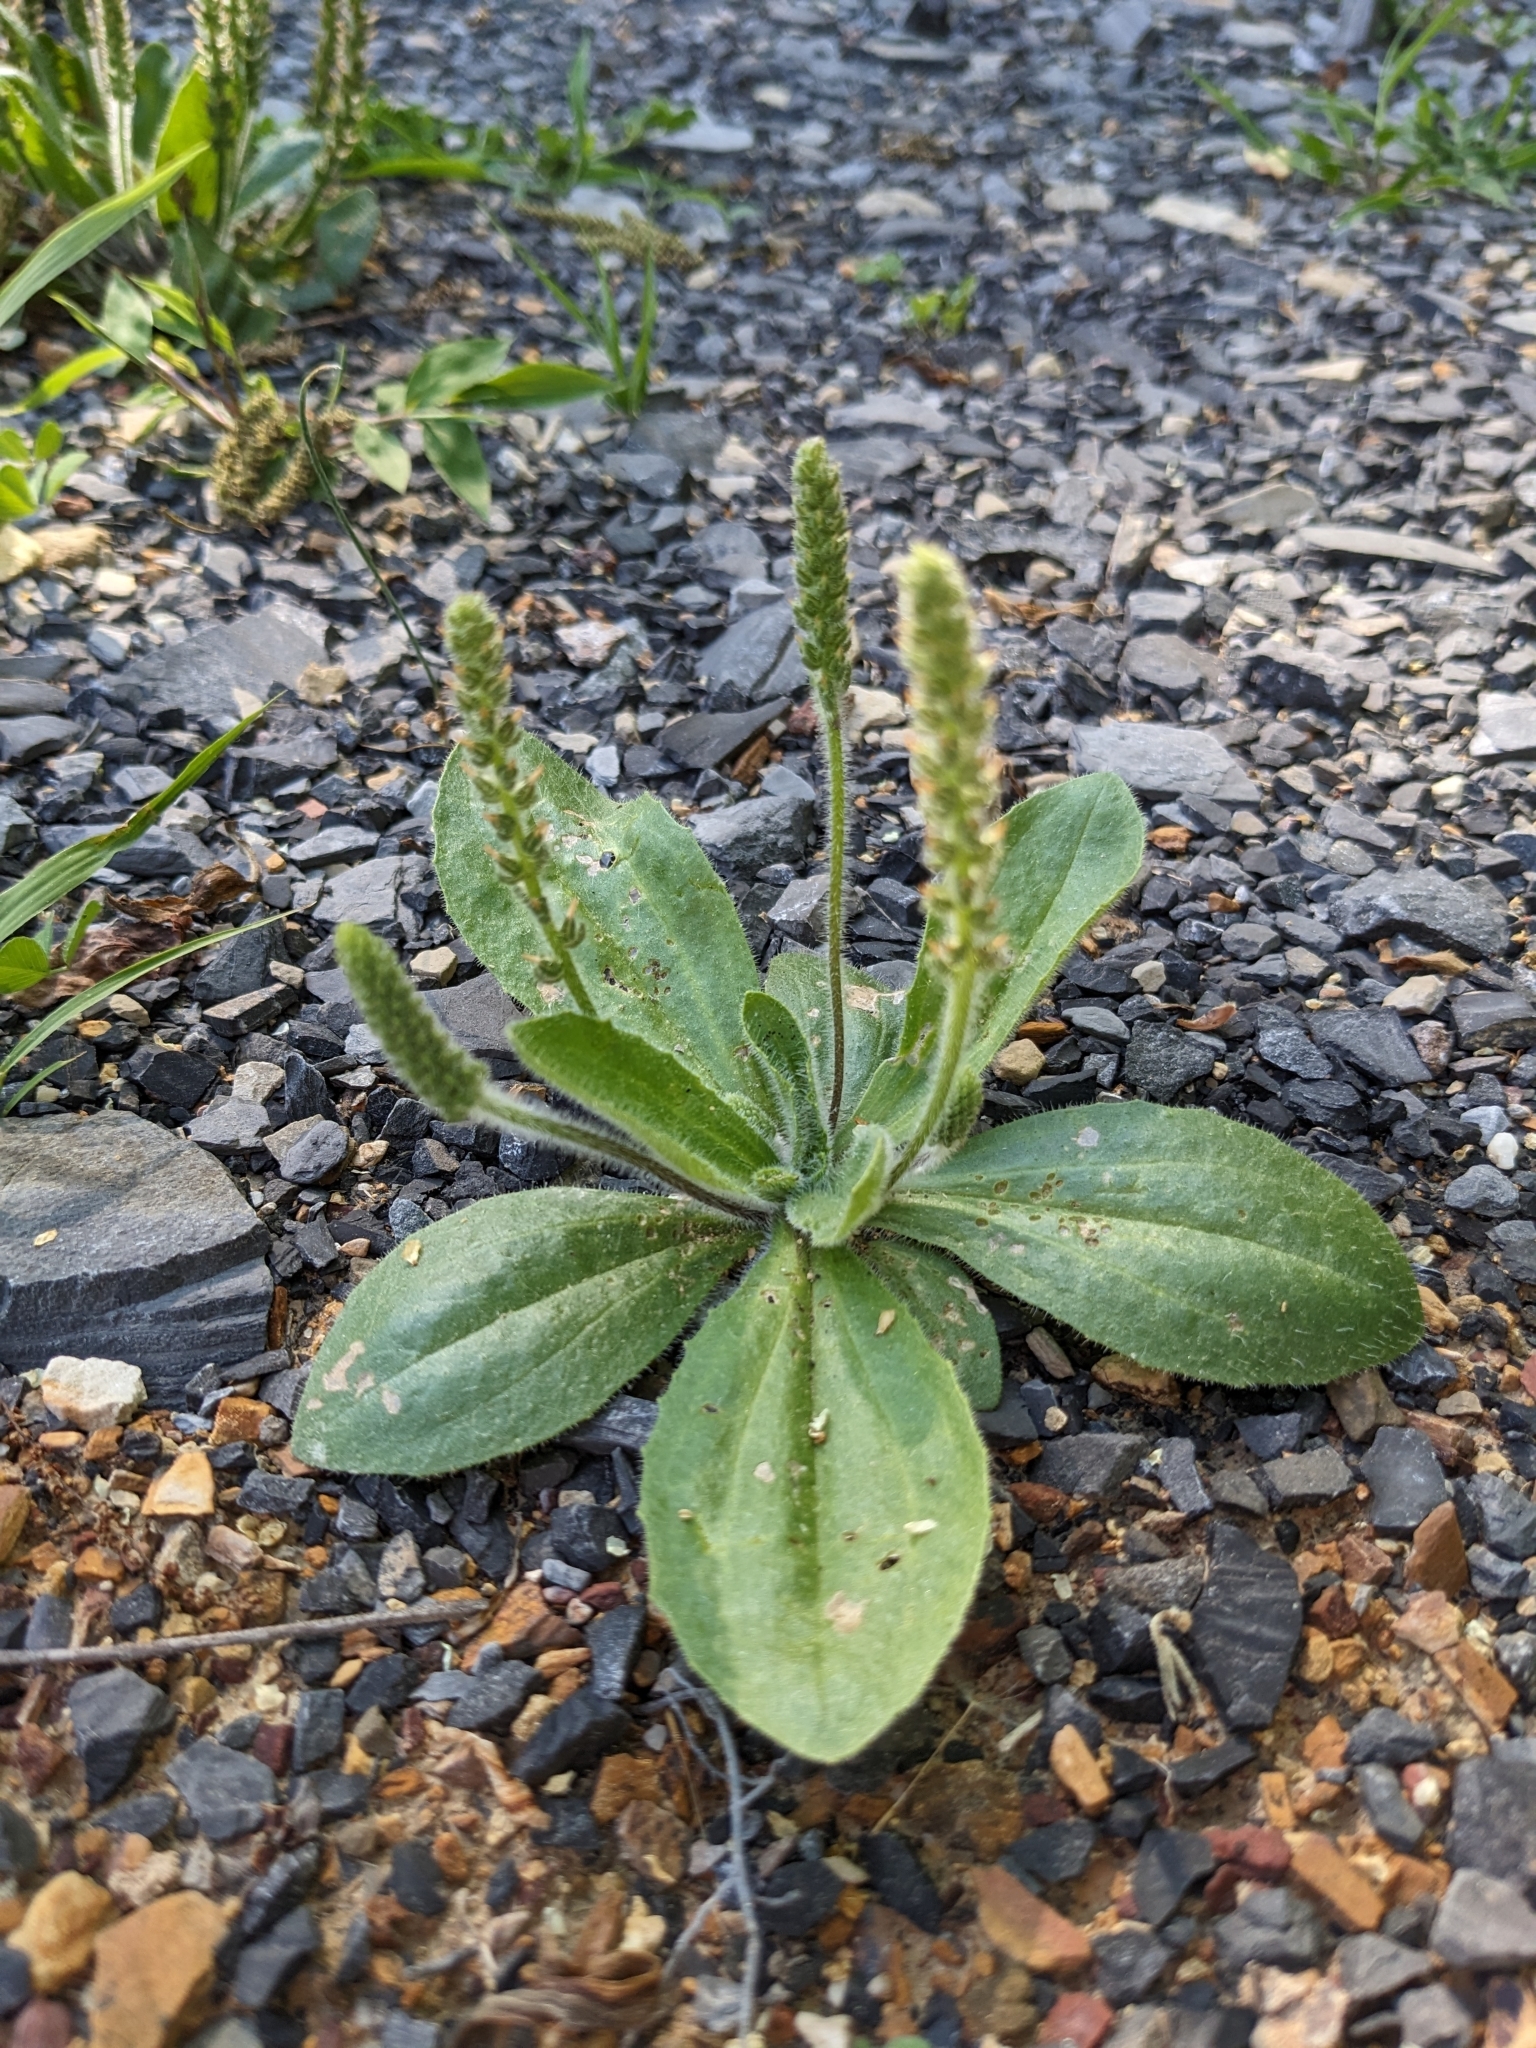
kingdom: Plantae
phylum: Tracheophyta
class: Magnoliopsida
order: Lamiales
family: Plantaginaceae
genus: Plantago
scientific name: Plantago virginica
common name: Hoary plantain
